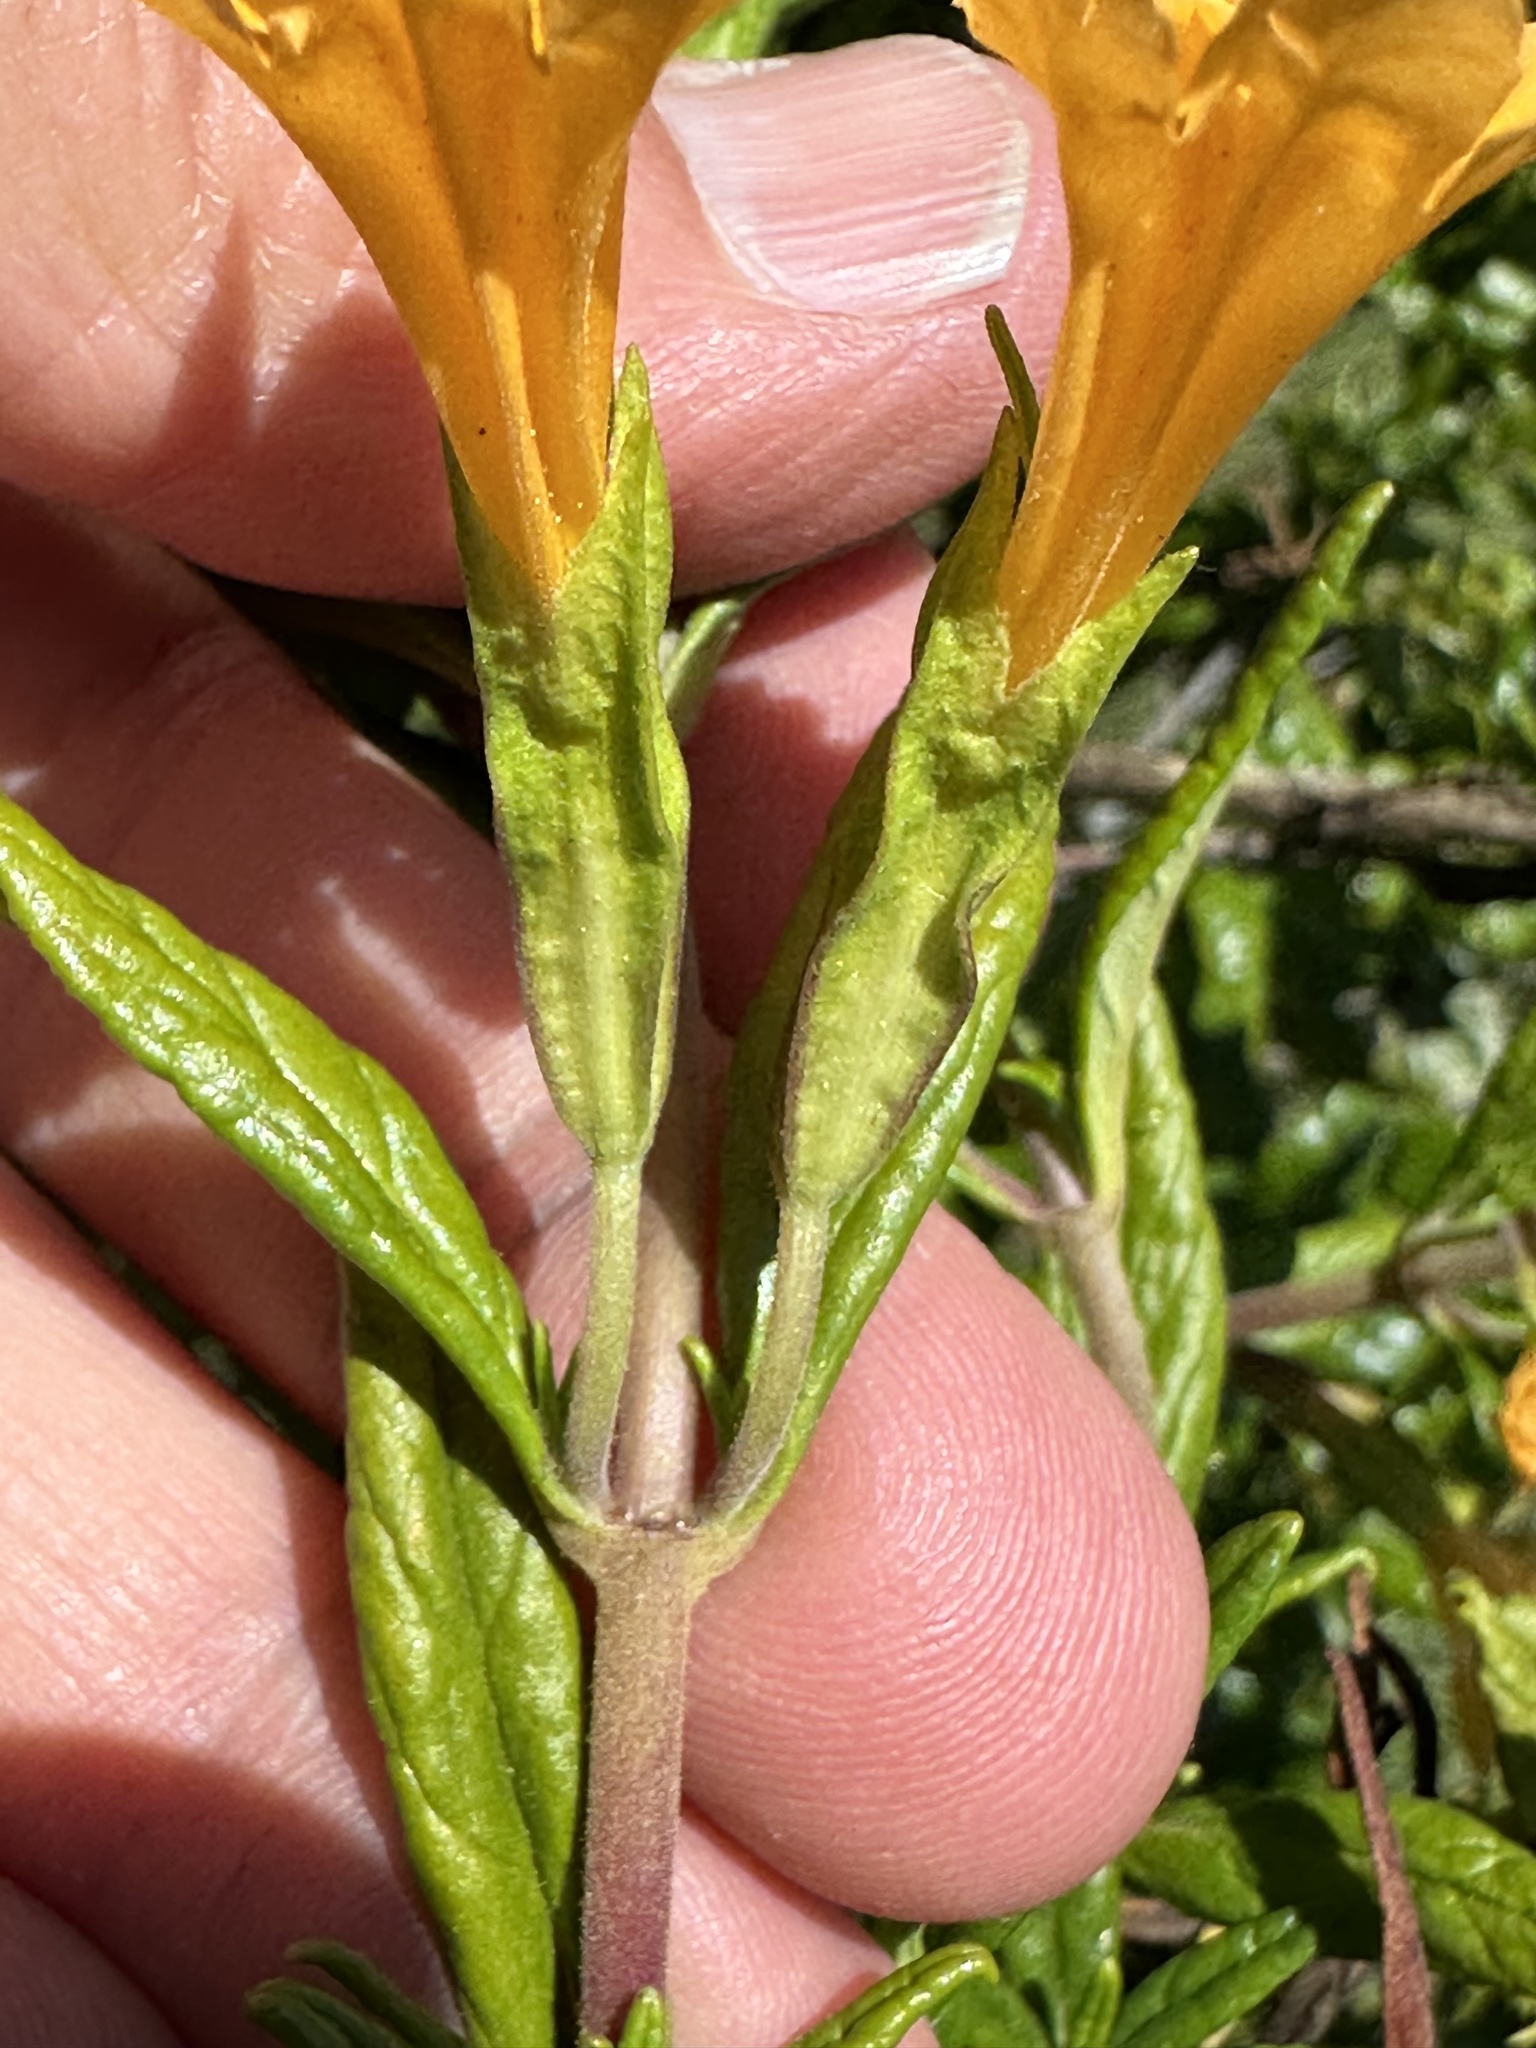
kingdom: Plantae
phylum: Tracheophyta
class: Magnoliopsida
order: Lamiales
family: Phrymaceae
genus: Diplacus
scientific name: Diplacus aurantiacus
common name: Bush monkey-flower
